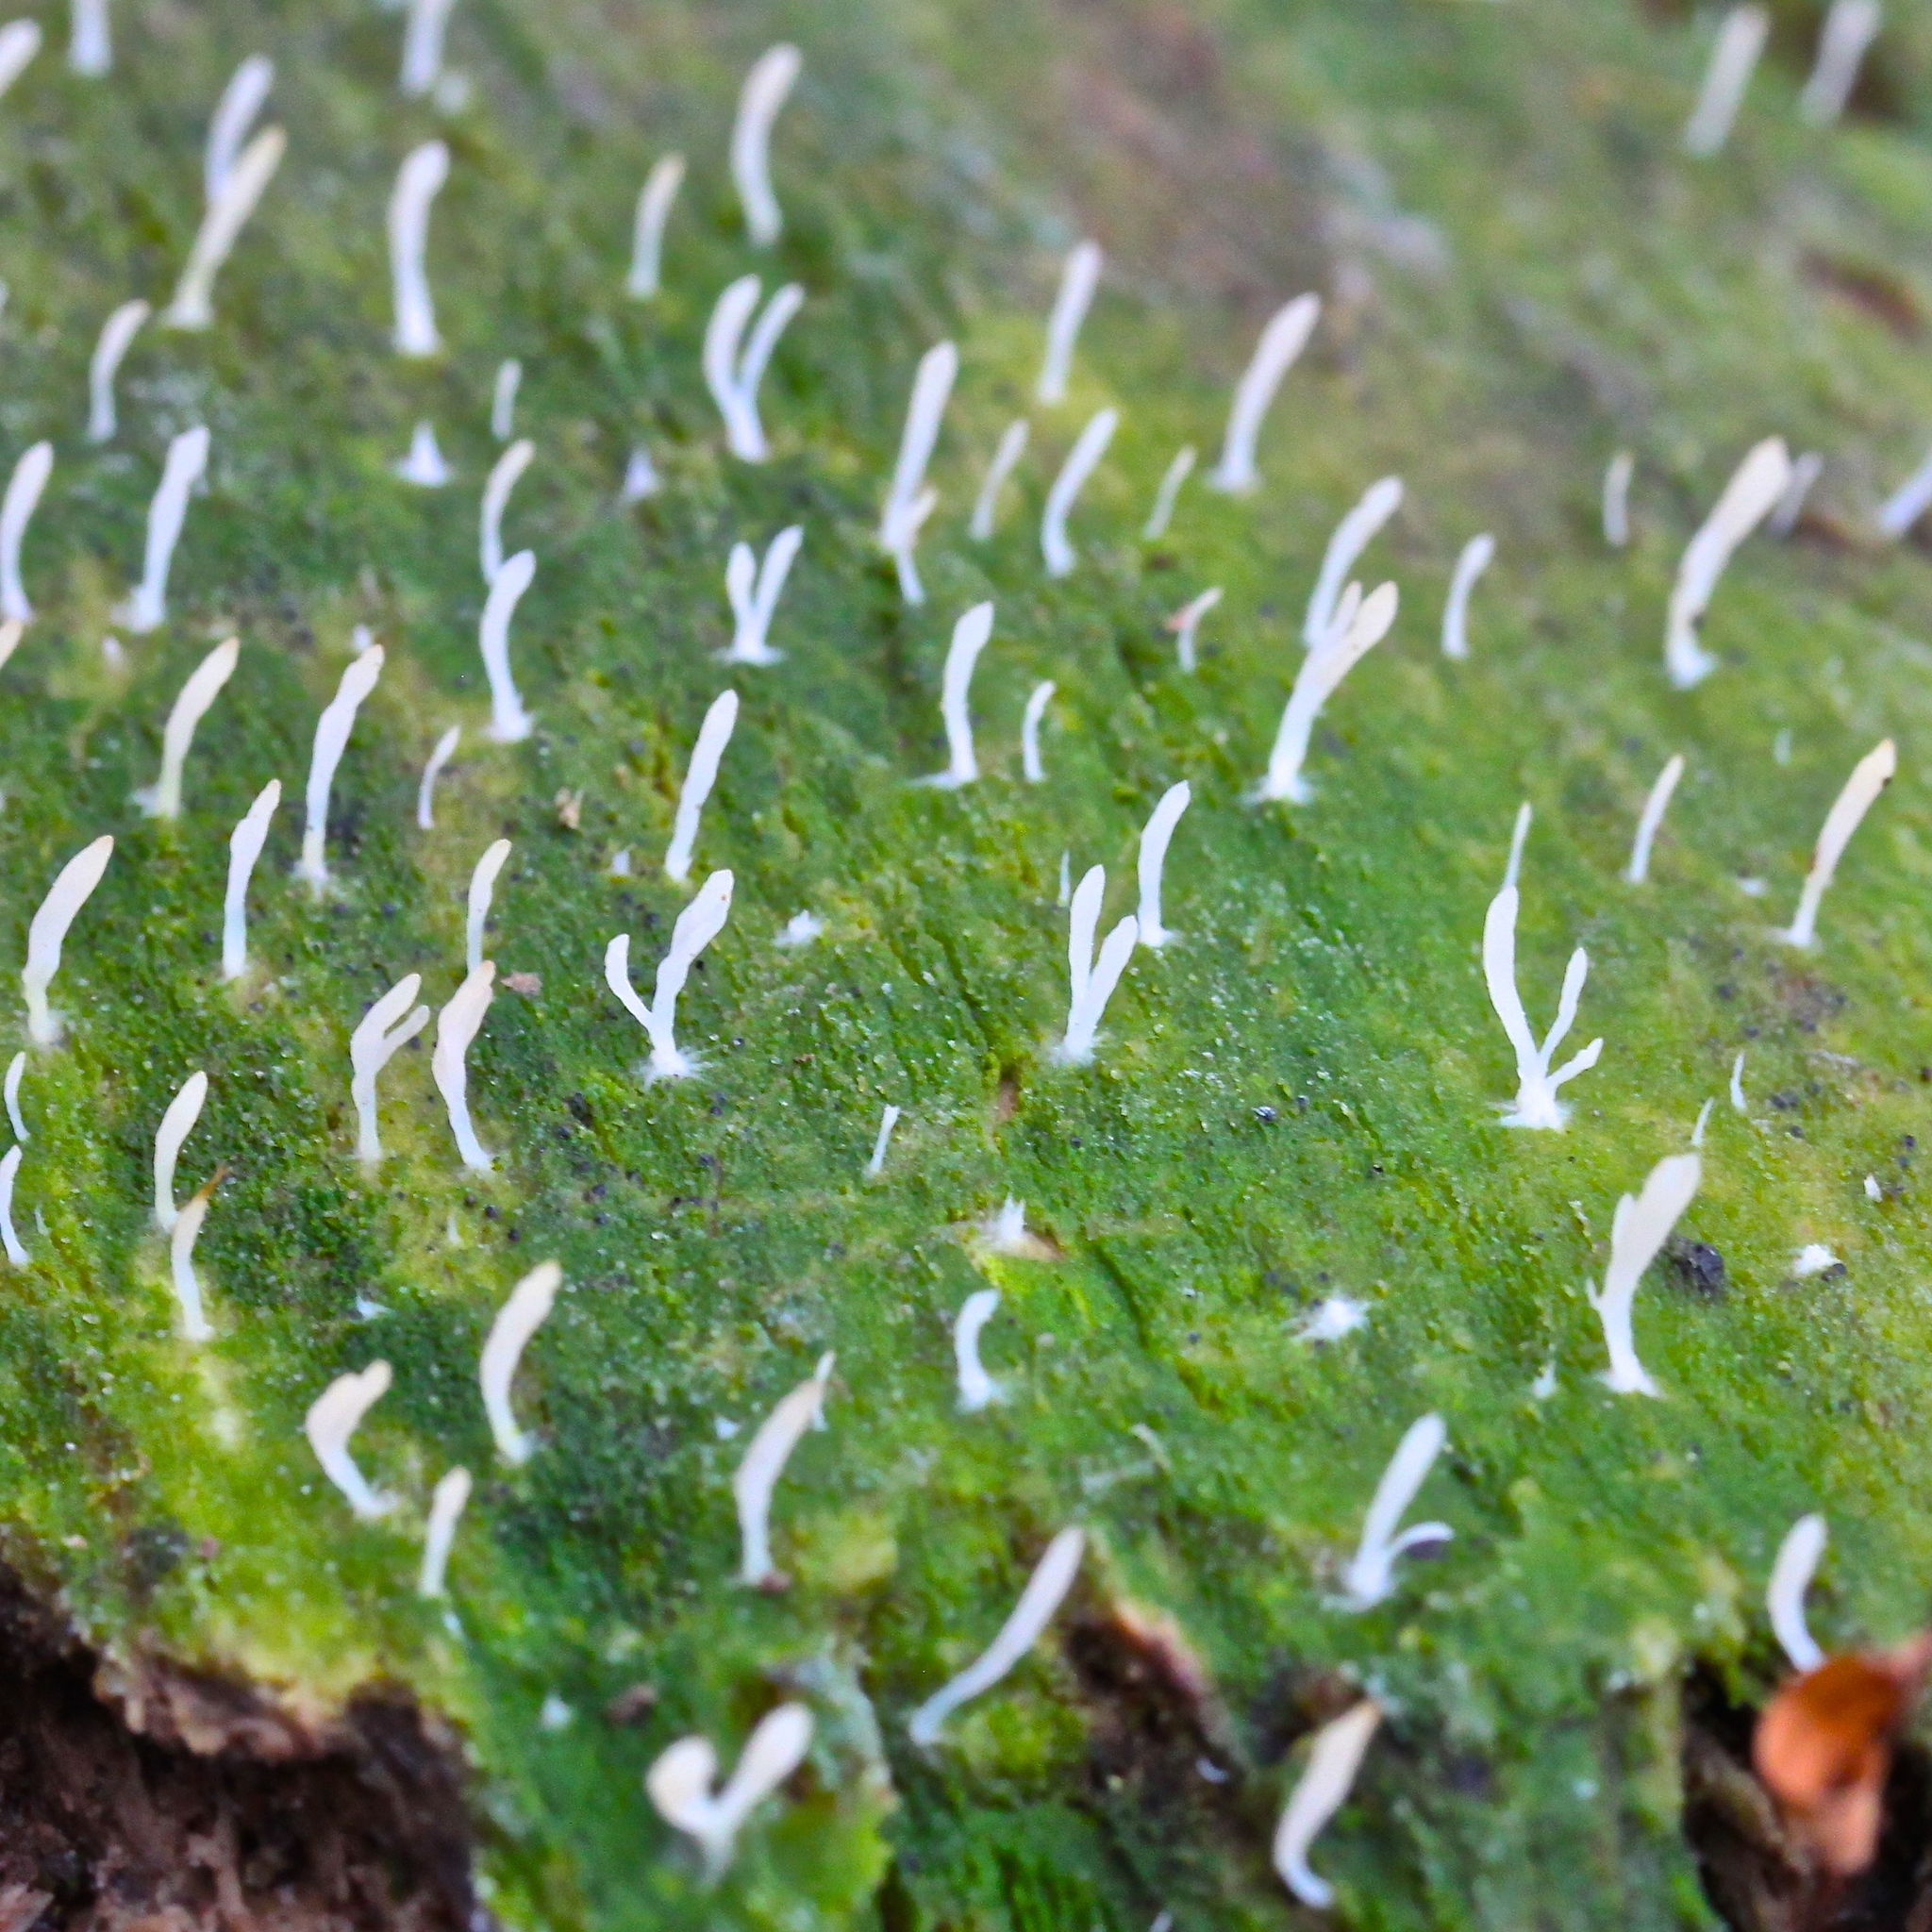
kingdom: Fungi
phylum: Basidiomycota
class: Agaricomycetes
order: Cantharellales
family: Hydnaceae
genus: Multiclavula
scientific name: Multiclavula mucida
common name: White green-algae coral
